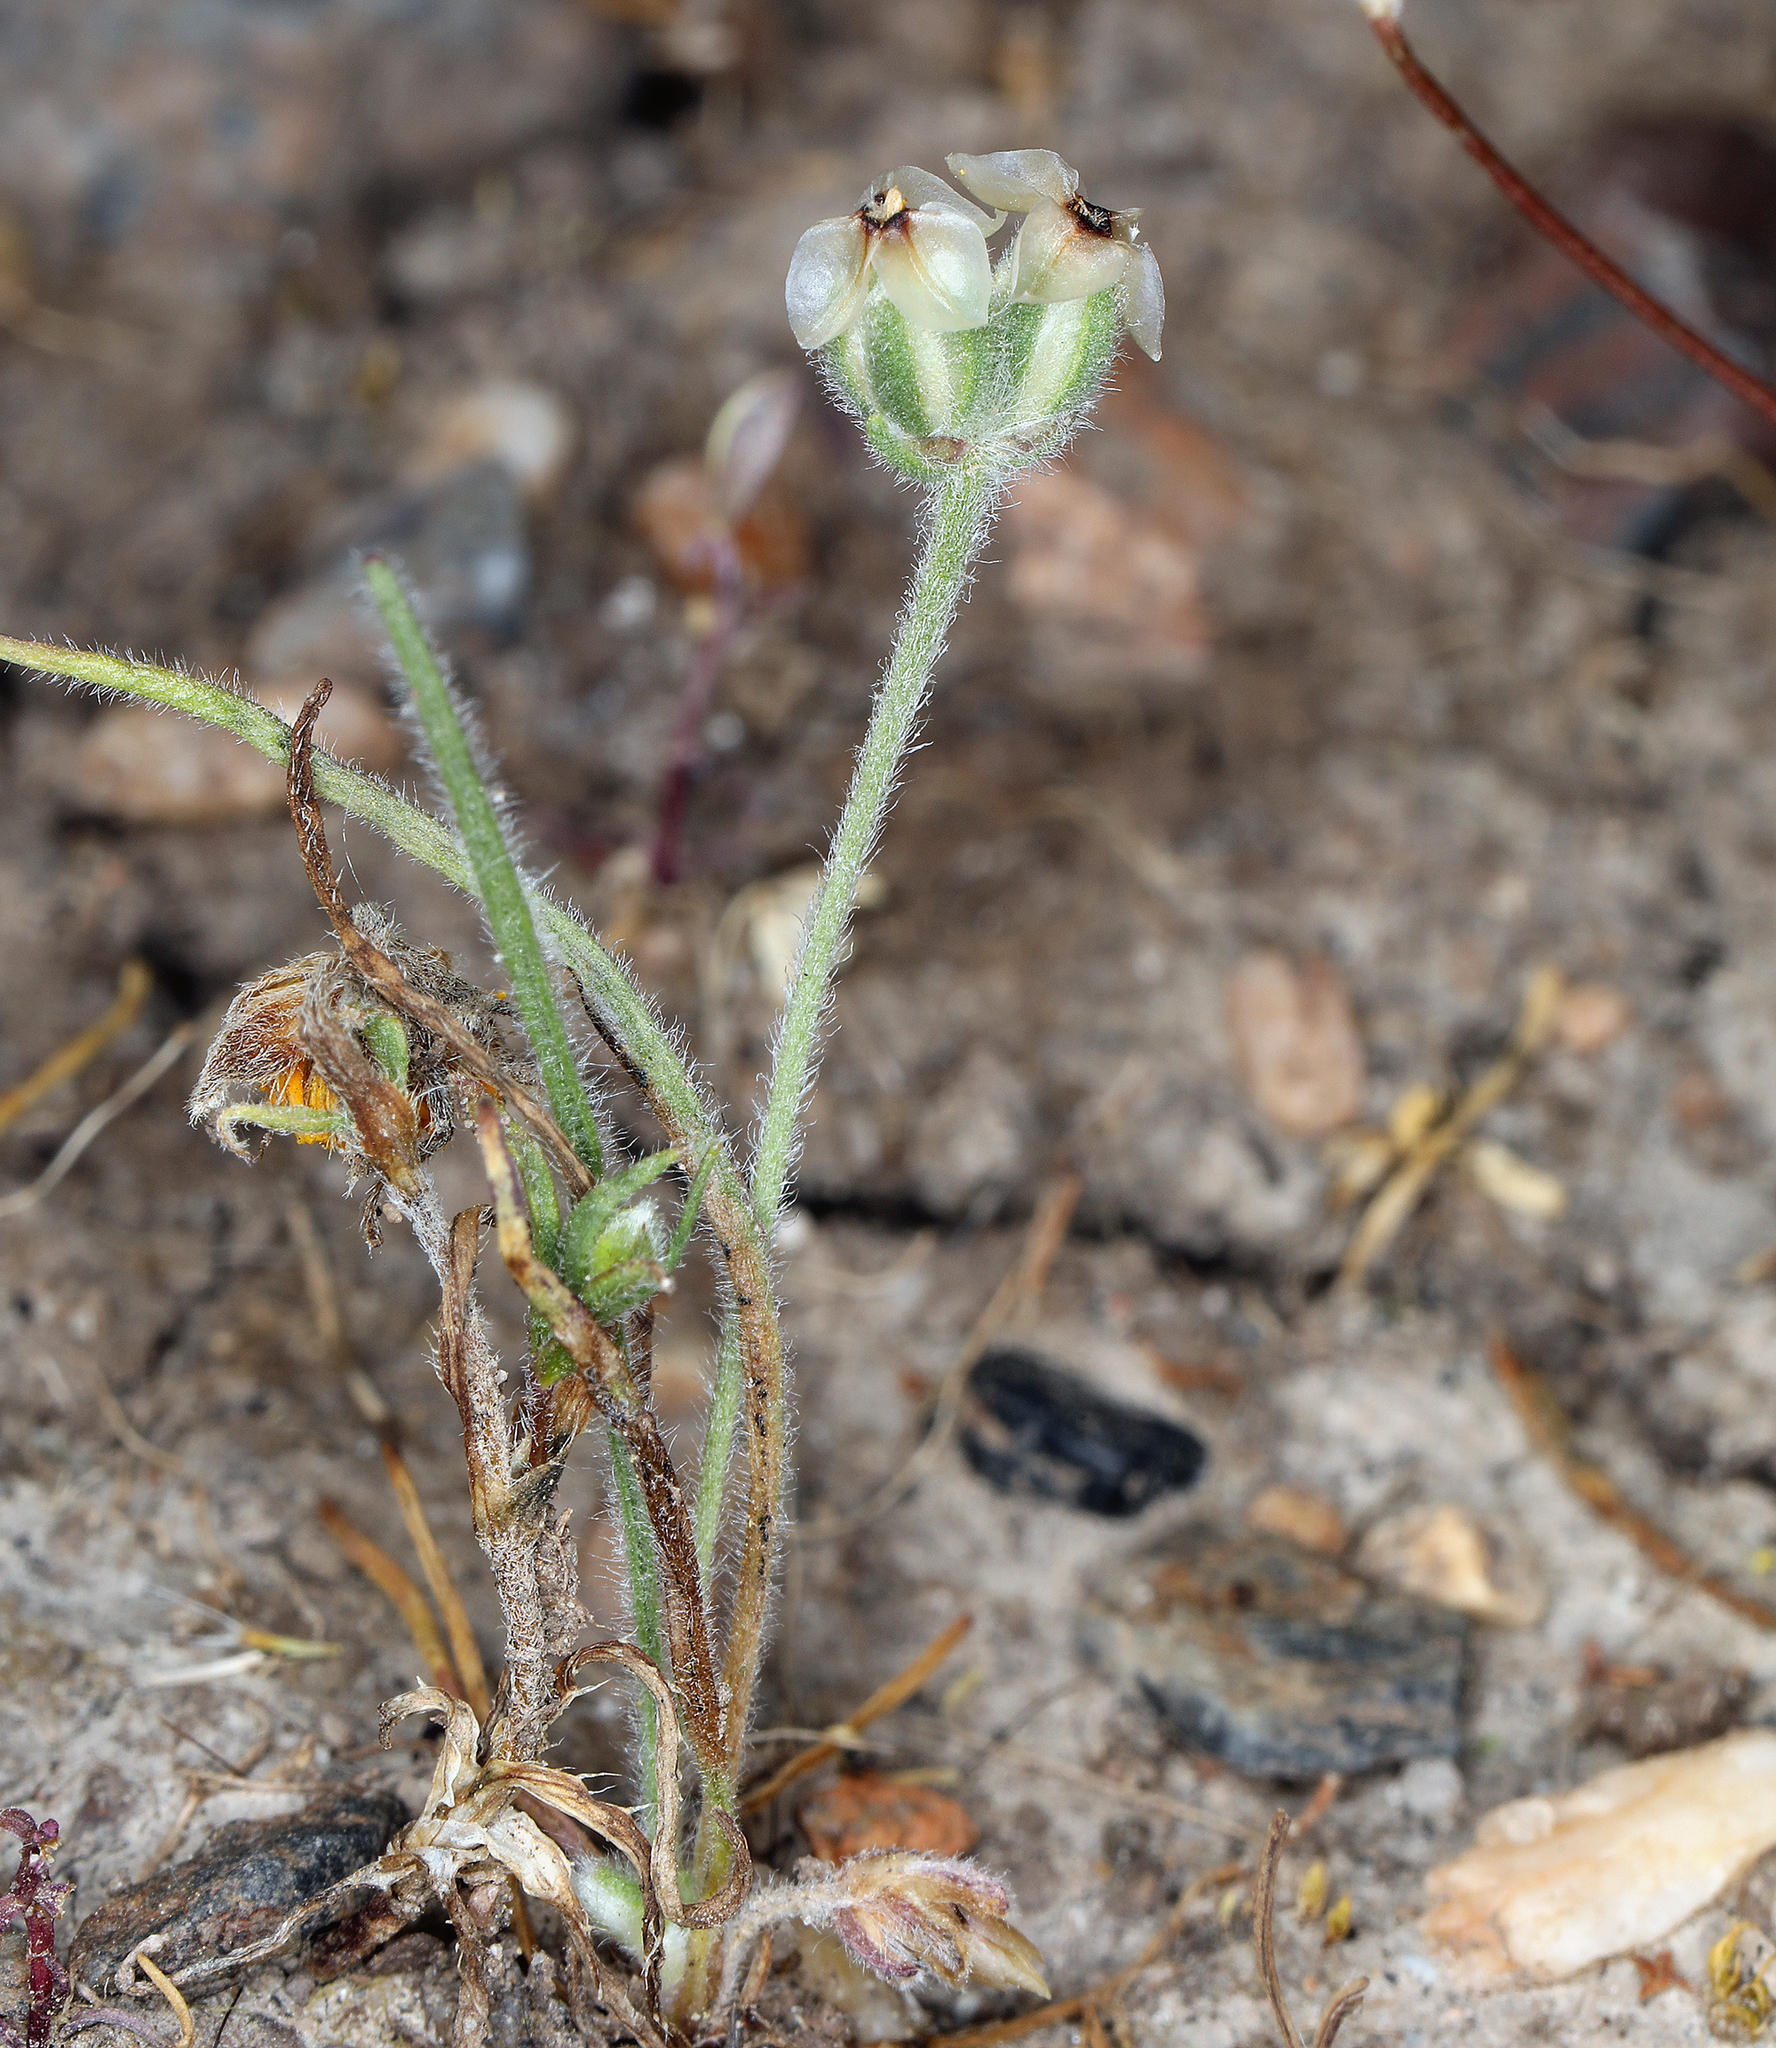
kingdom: Plantae
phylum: Tracheophyta
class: Magnoliopsida
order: Lamiales
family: Plantaginaceae
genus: Plantago
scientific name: Plantago erecta
